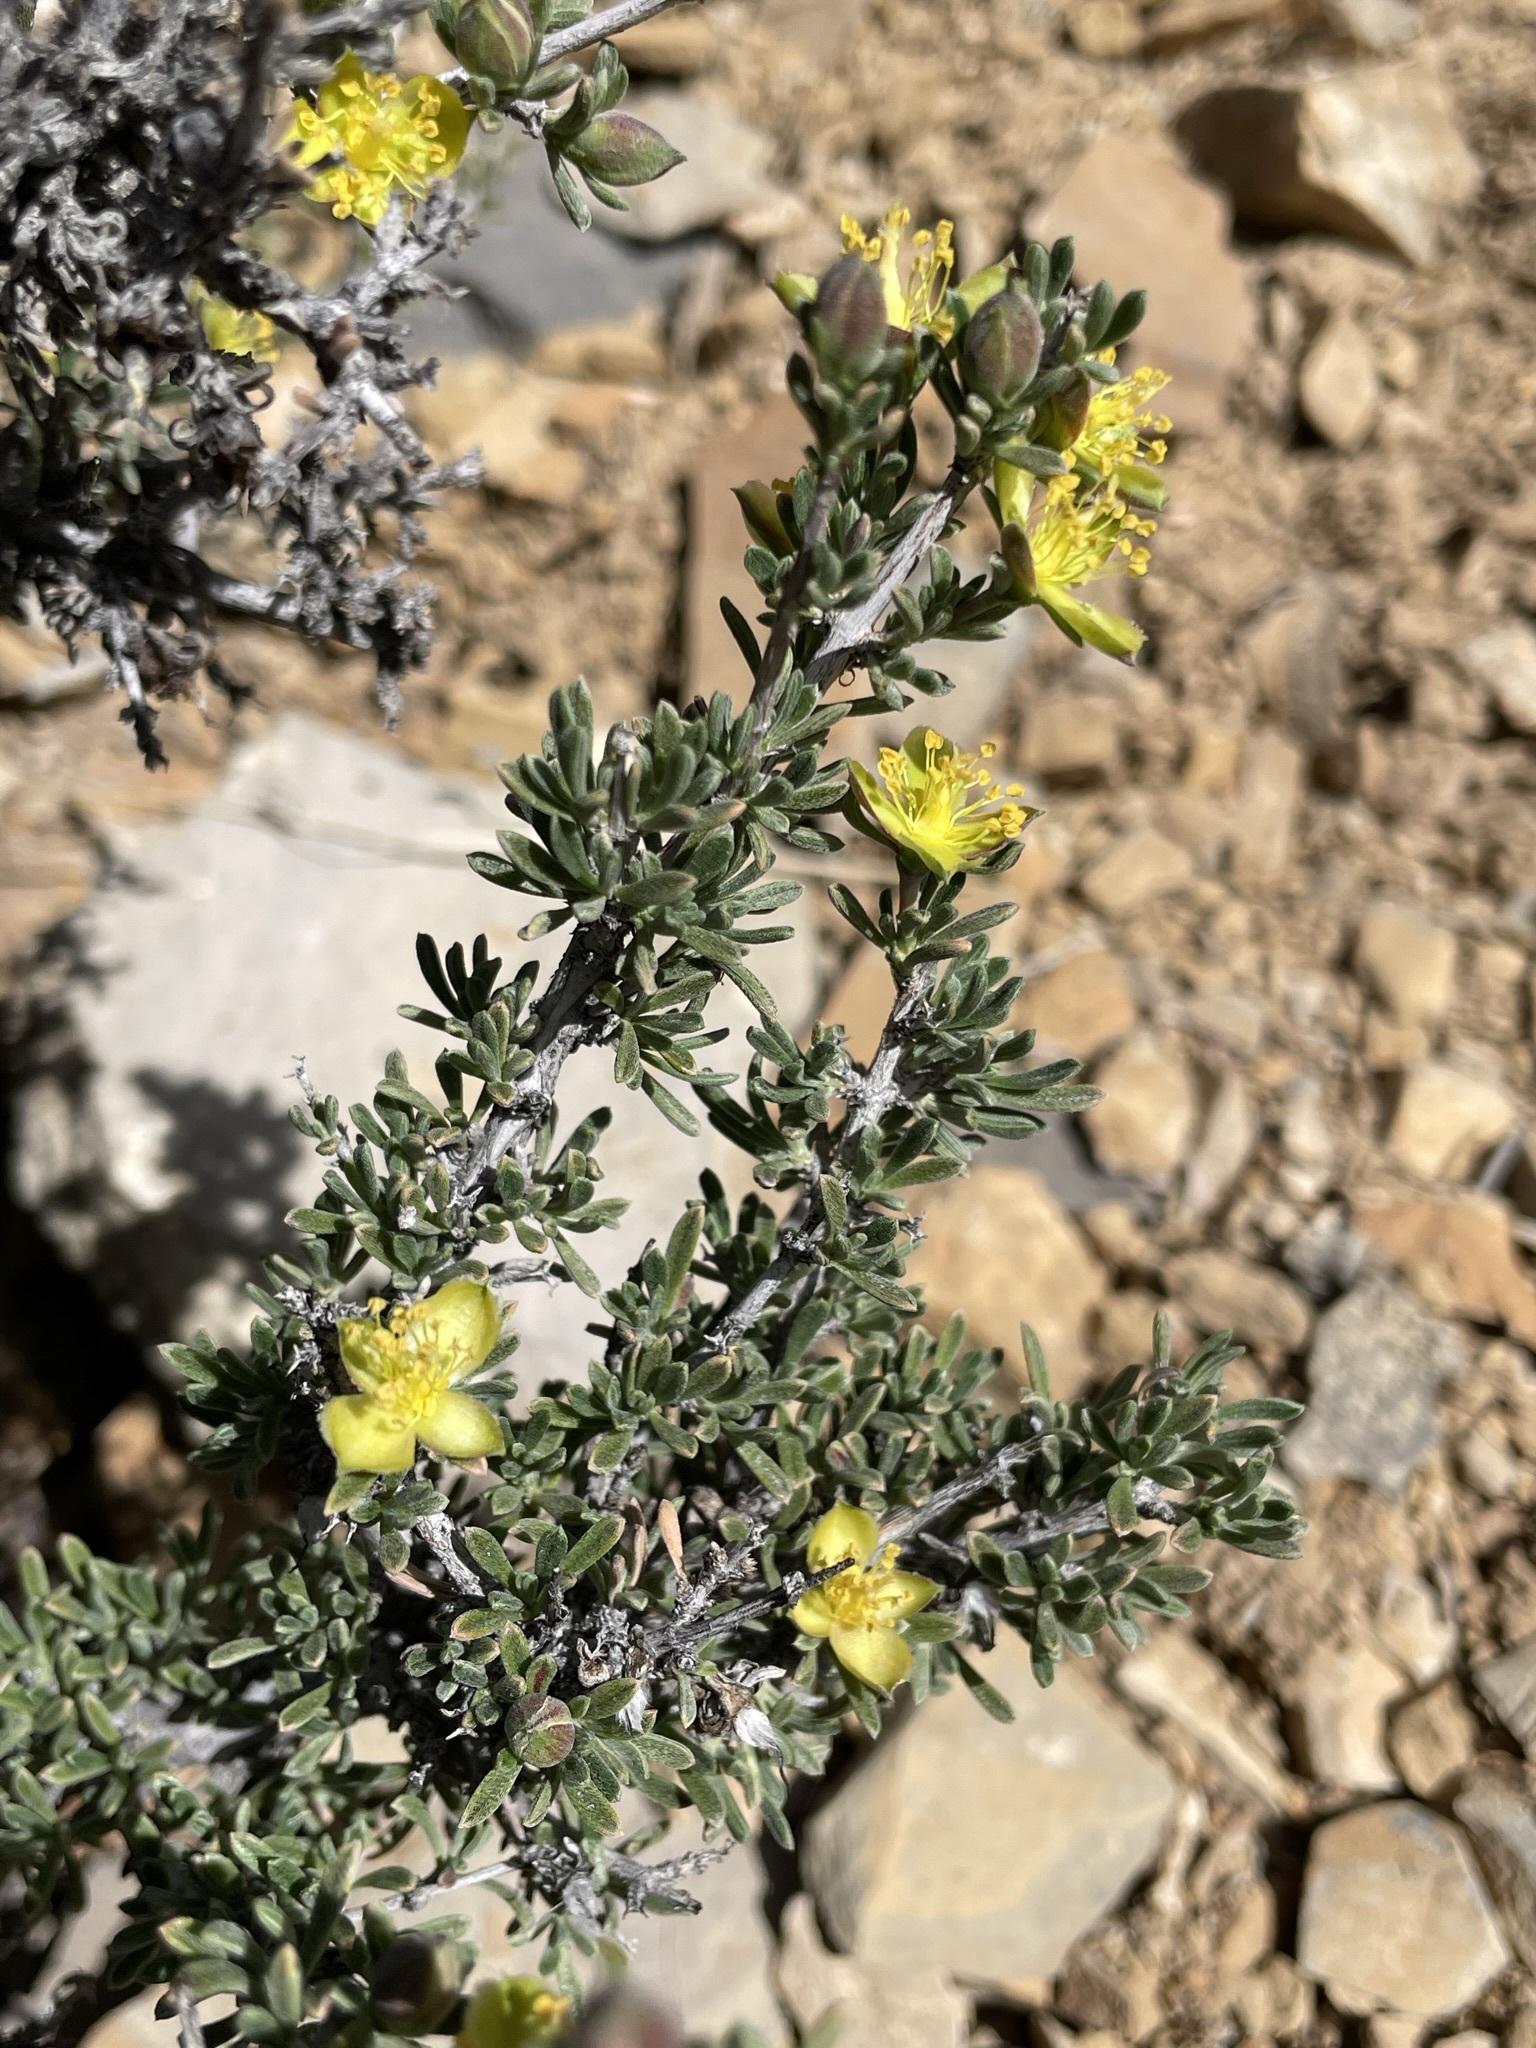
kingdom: Plantae
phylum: Tracheophyta
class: Magnoliopsida
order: Rosales
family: Rosaceae
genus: Coleogyne
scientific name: Coleogyne ramosissima
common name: Blackbrush
